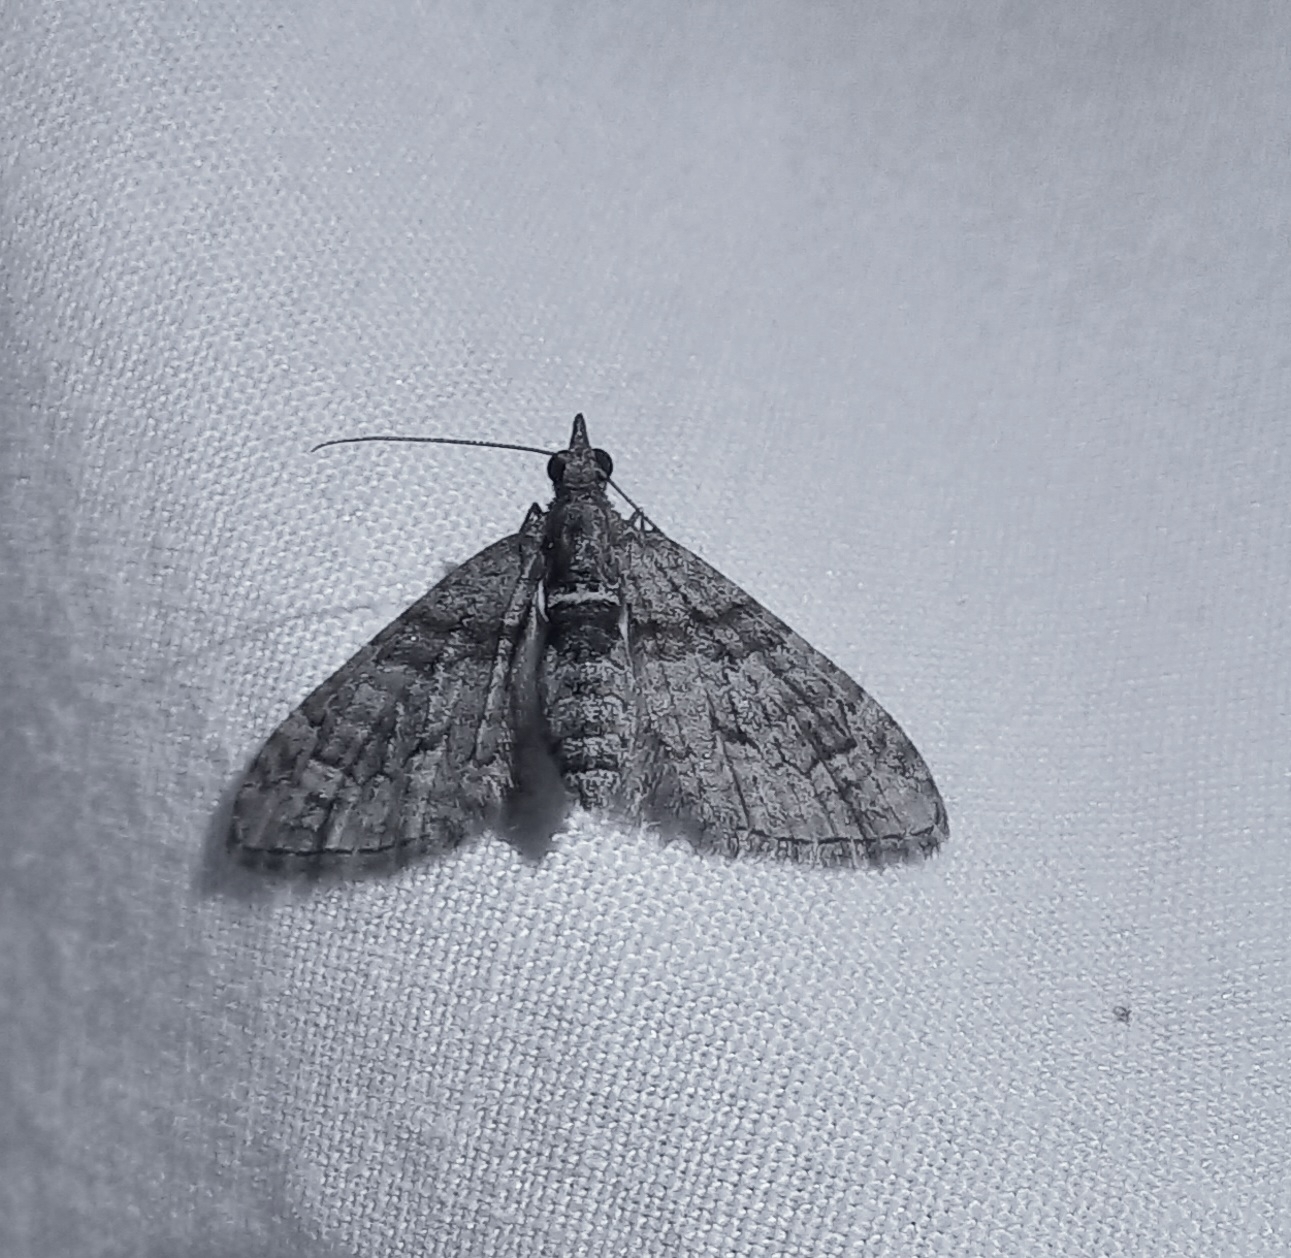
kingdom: Animalia
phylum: Arthropoda
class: Insecta
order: Lepidoptera
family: Geometridae
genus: Phrissogonus
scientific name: Phrissogonus laticostata
